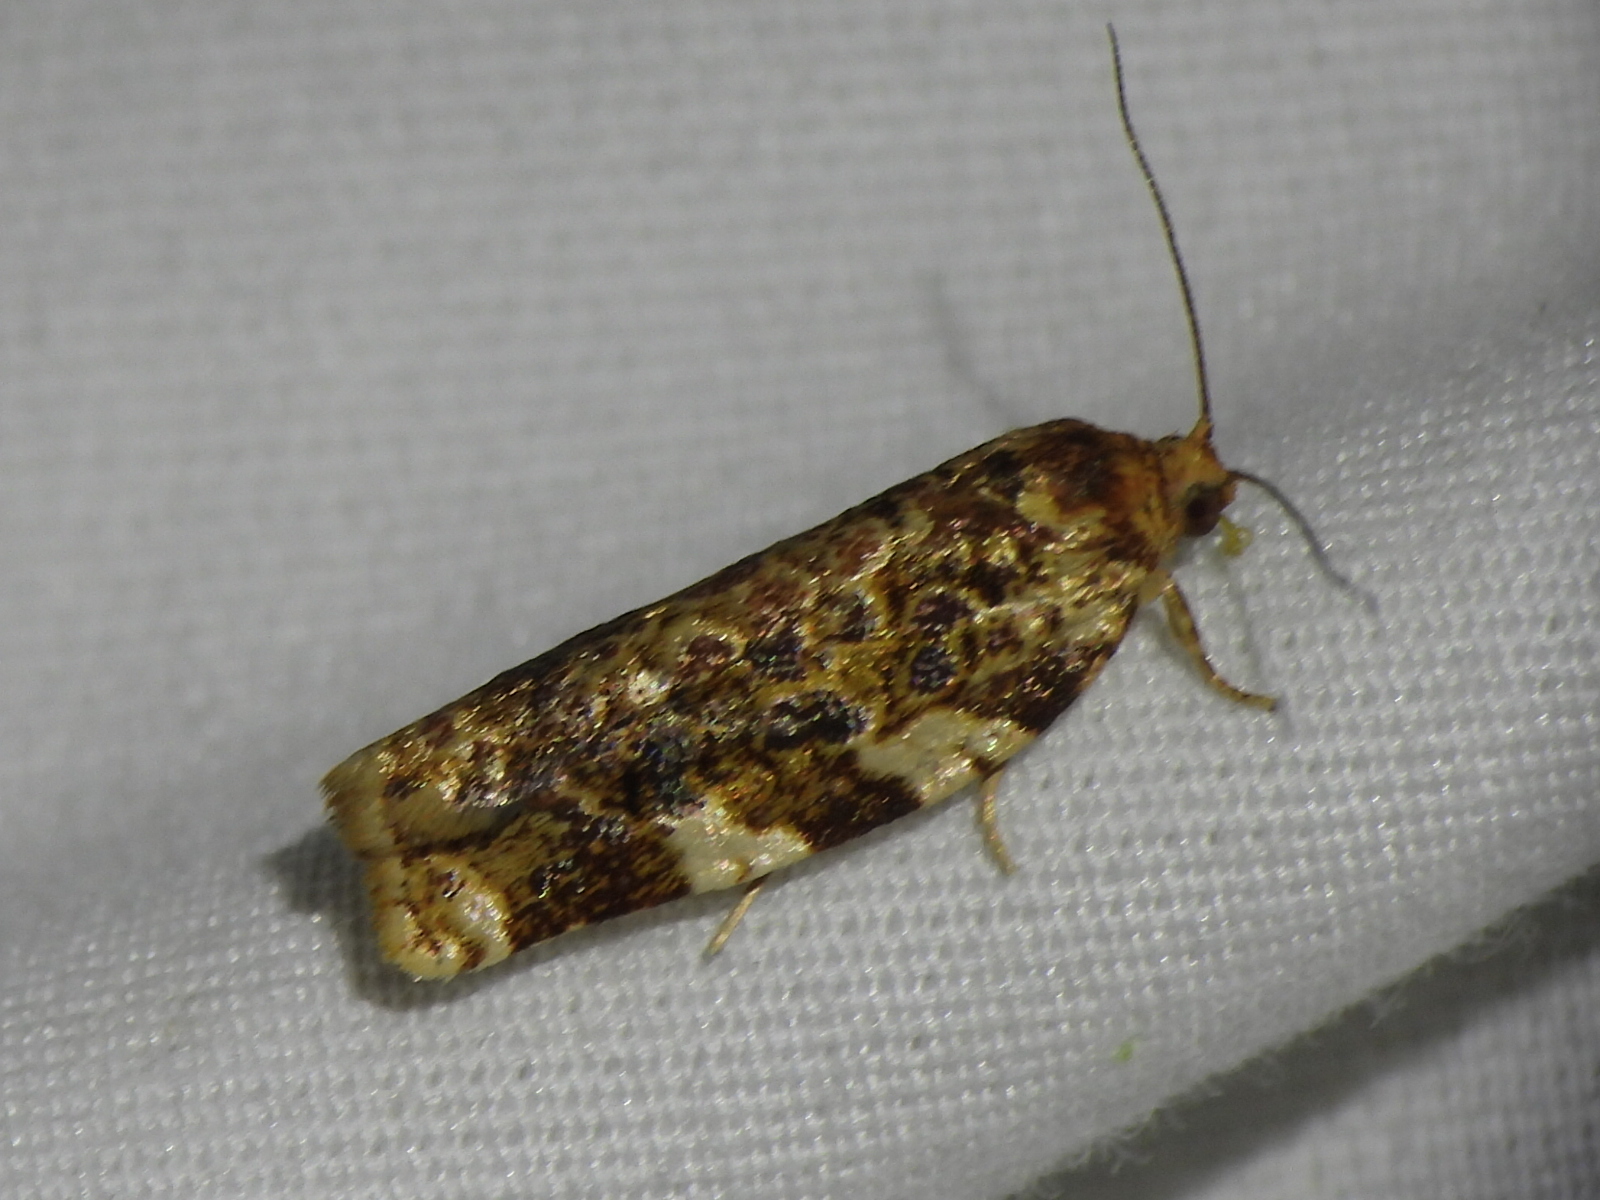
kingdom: Animalia
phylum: Arthropoda
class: Insecta
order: Lepidoptera
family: Tortricidae
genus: Archips
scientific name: Archips argyrospila
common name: Fruit-tree leafroller moth
